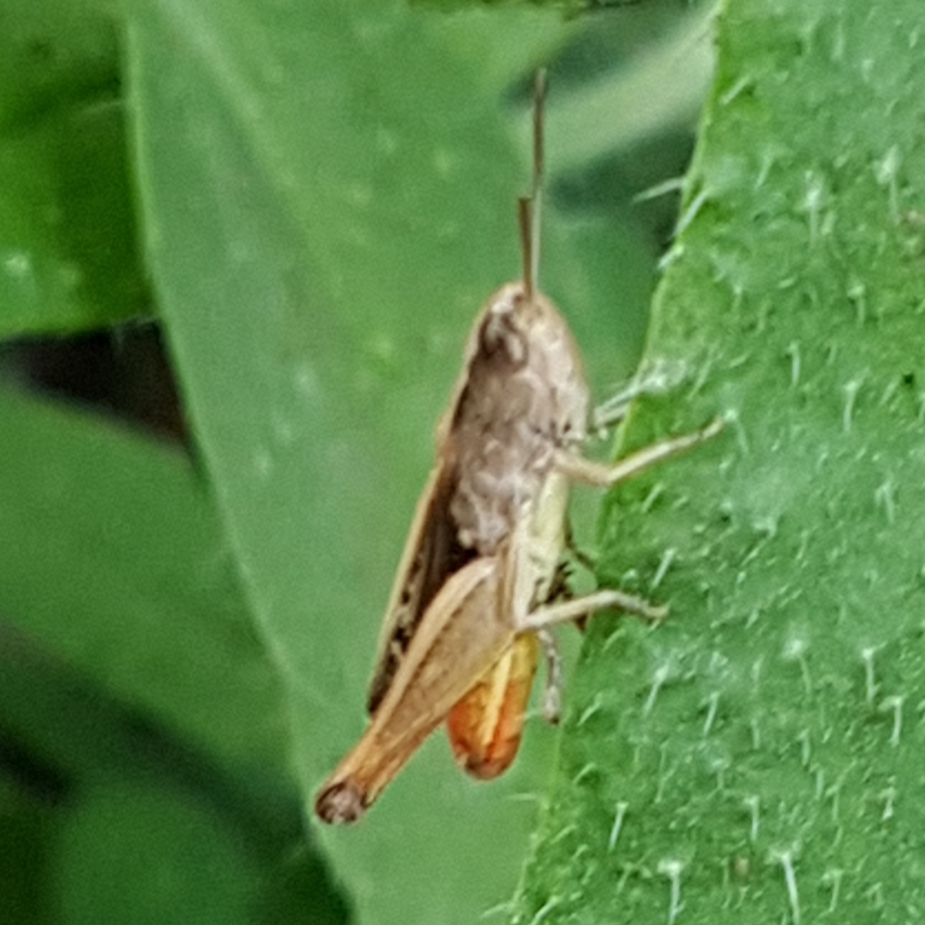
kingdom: Animalia
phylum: Arthropoda
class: Insecta
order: Orthoptera
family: Acrididae
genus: Omocestus
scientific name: Omocestus panteli
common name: Pantel's grasshopper
